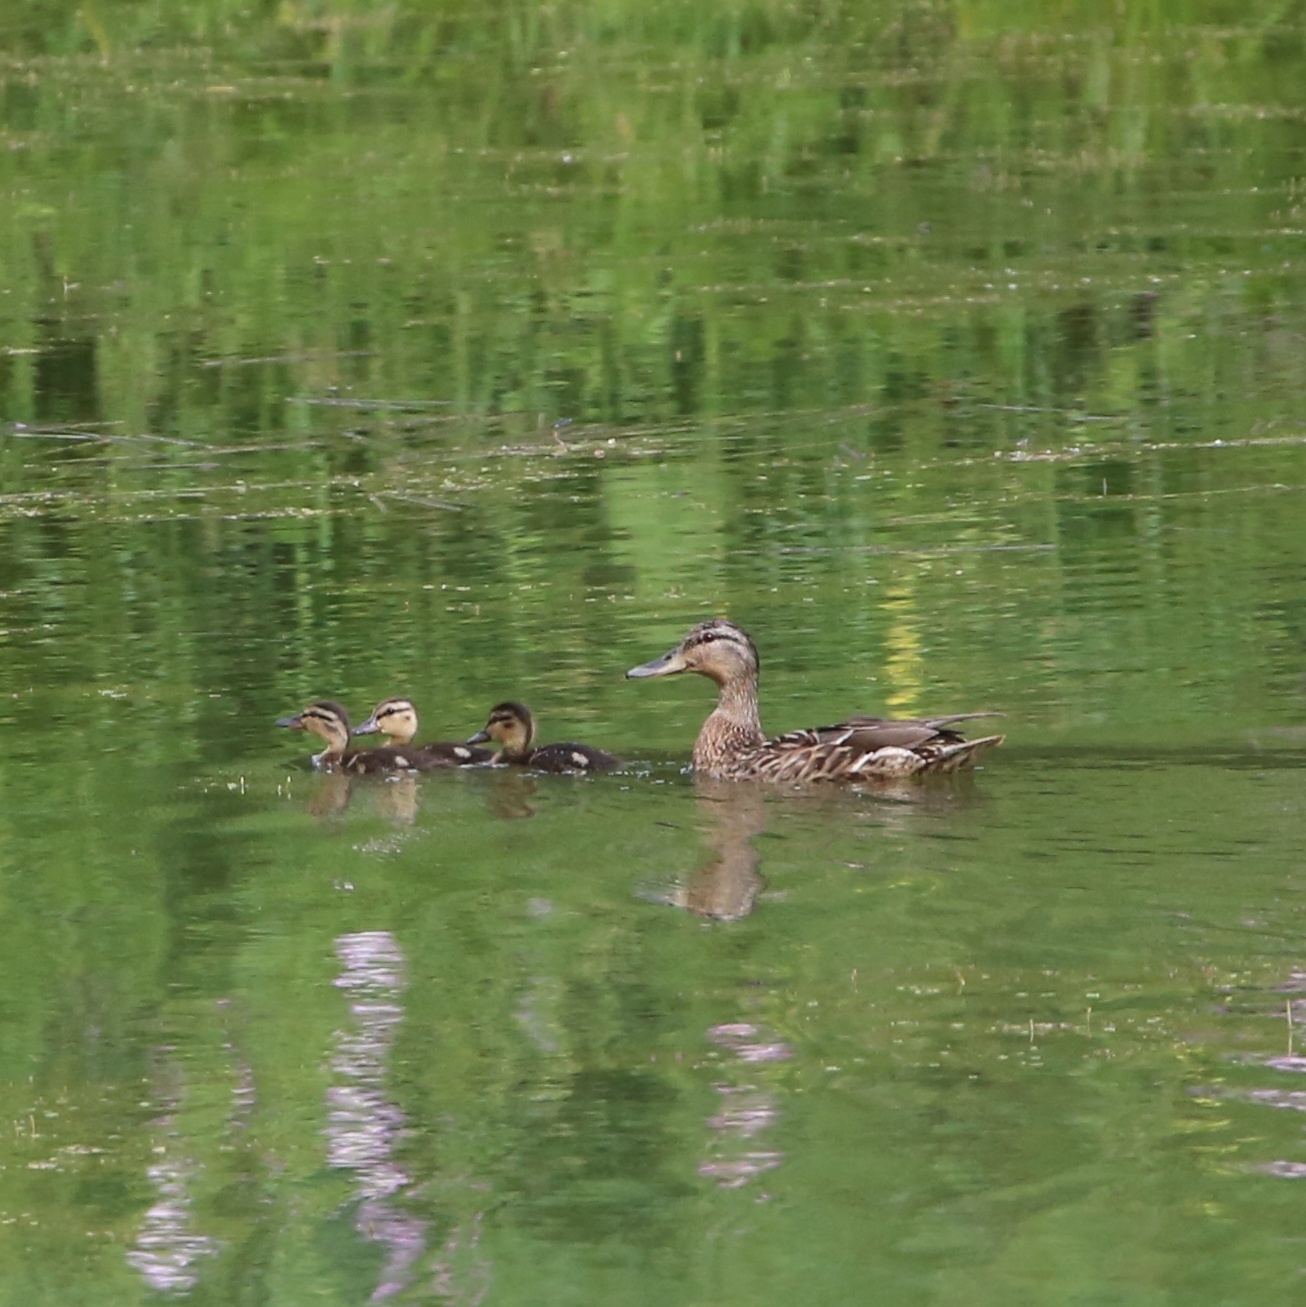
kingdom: Animalia
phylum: Chordata
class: Aves
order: Anseriformes
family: Anatidae
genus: Anas
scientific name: Anas platyrhynchos
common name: Mallard
